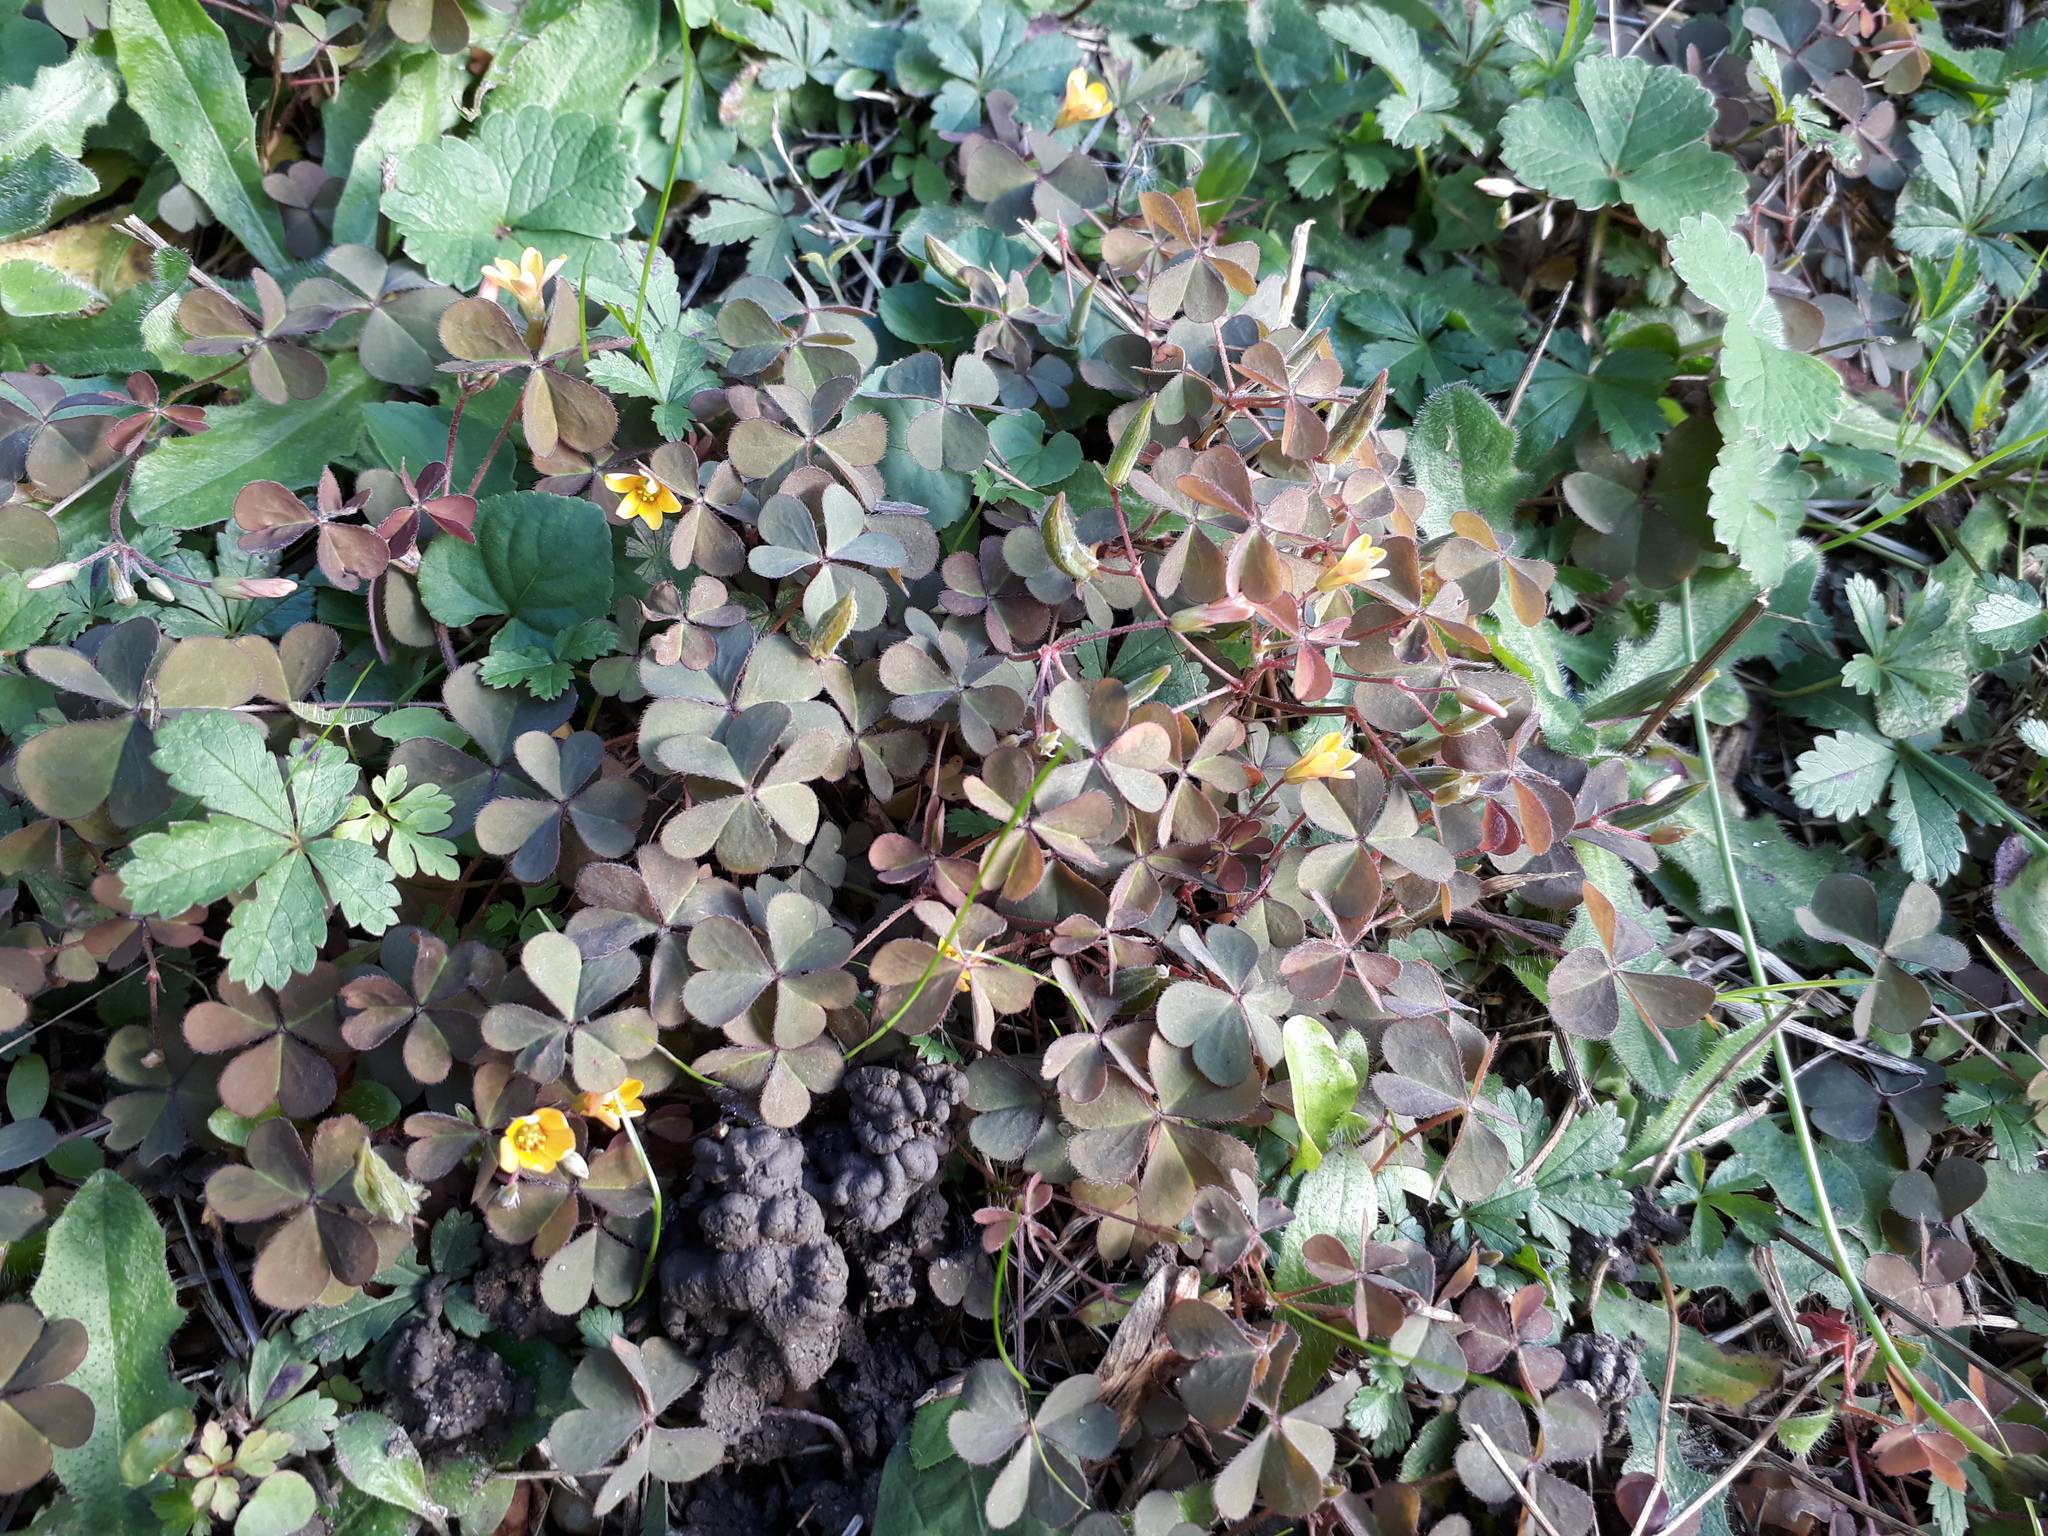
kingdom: Plantae
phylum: Tracheophyta
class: Magnoliopsida
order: Oxalidales
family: Oxalidaceae
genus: Oxalis
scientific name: Oxalis corniculata
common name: Procumbent yellow-sorrel
